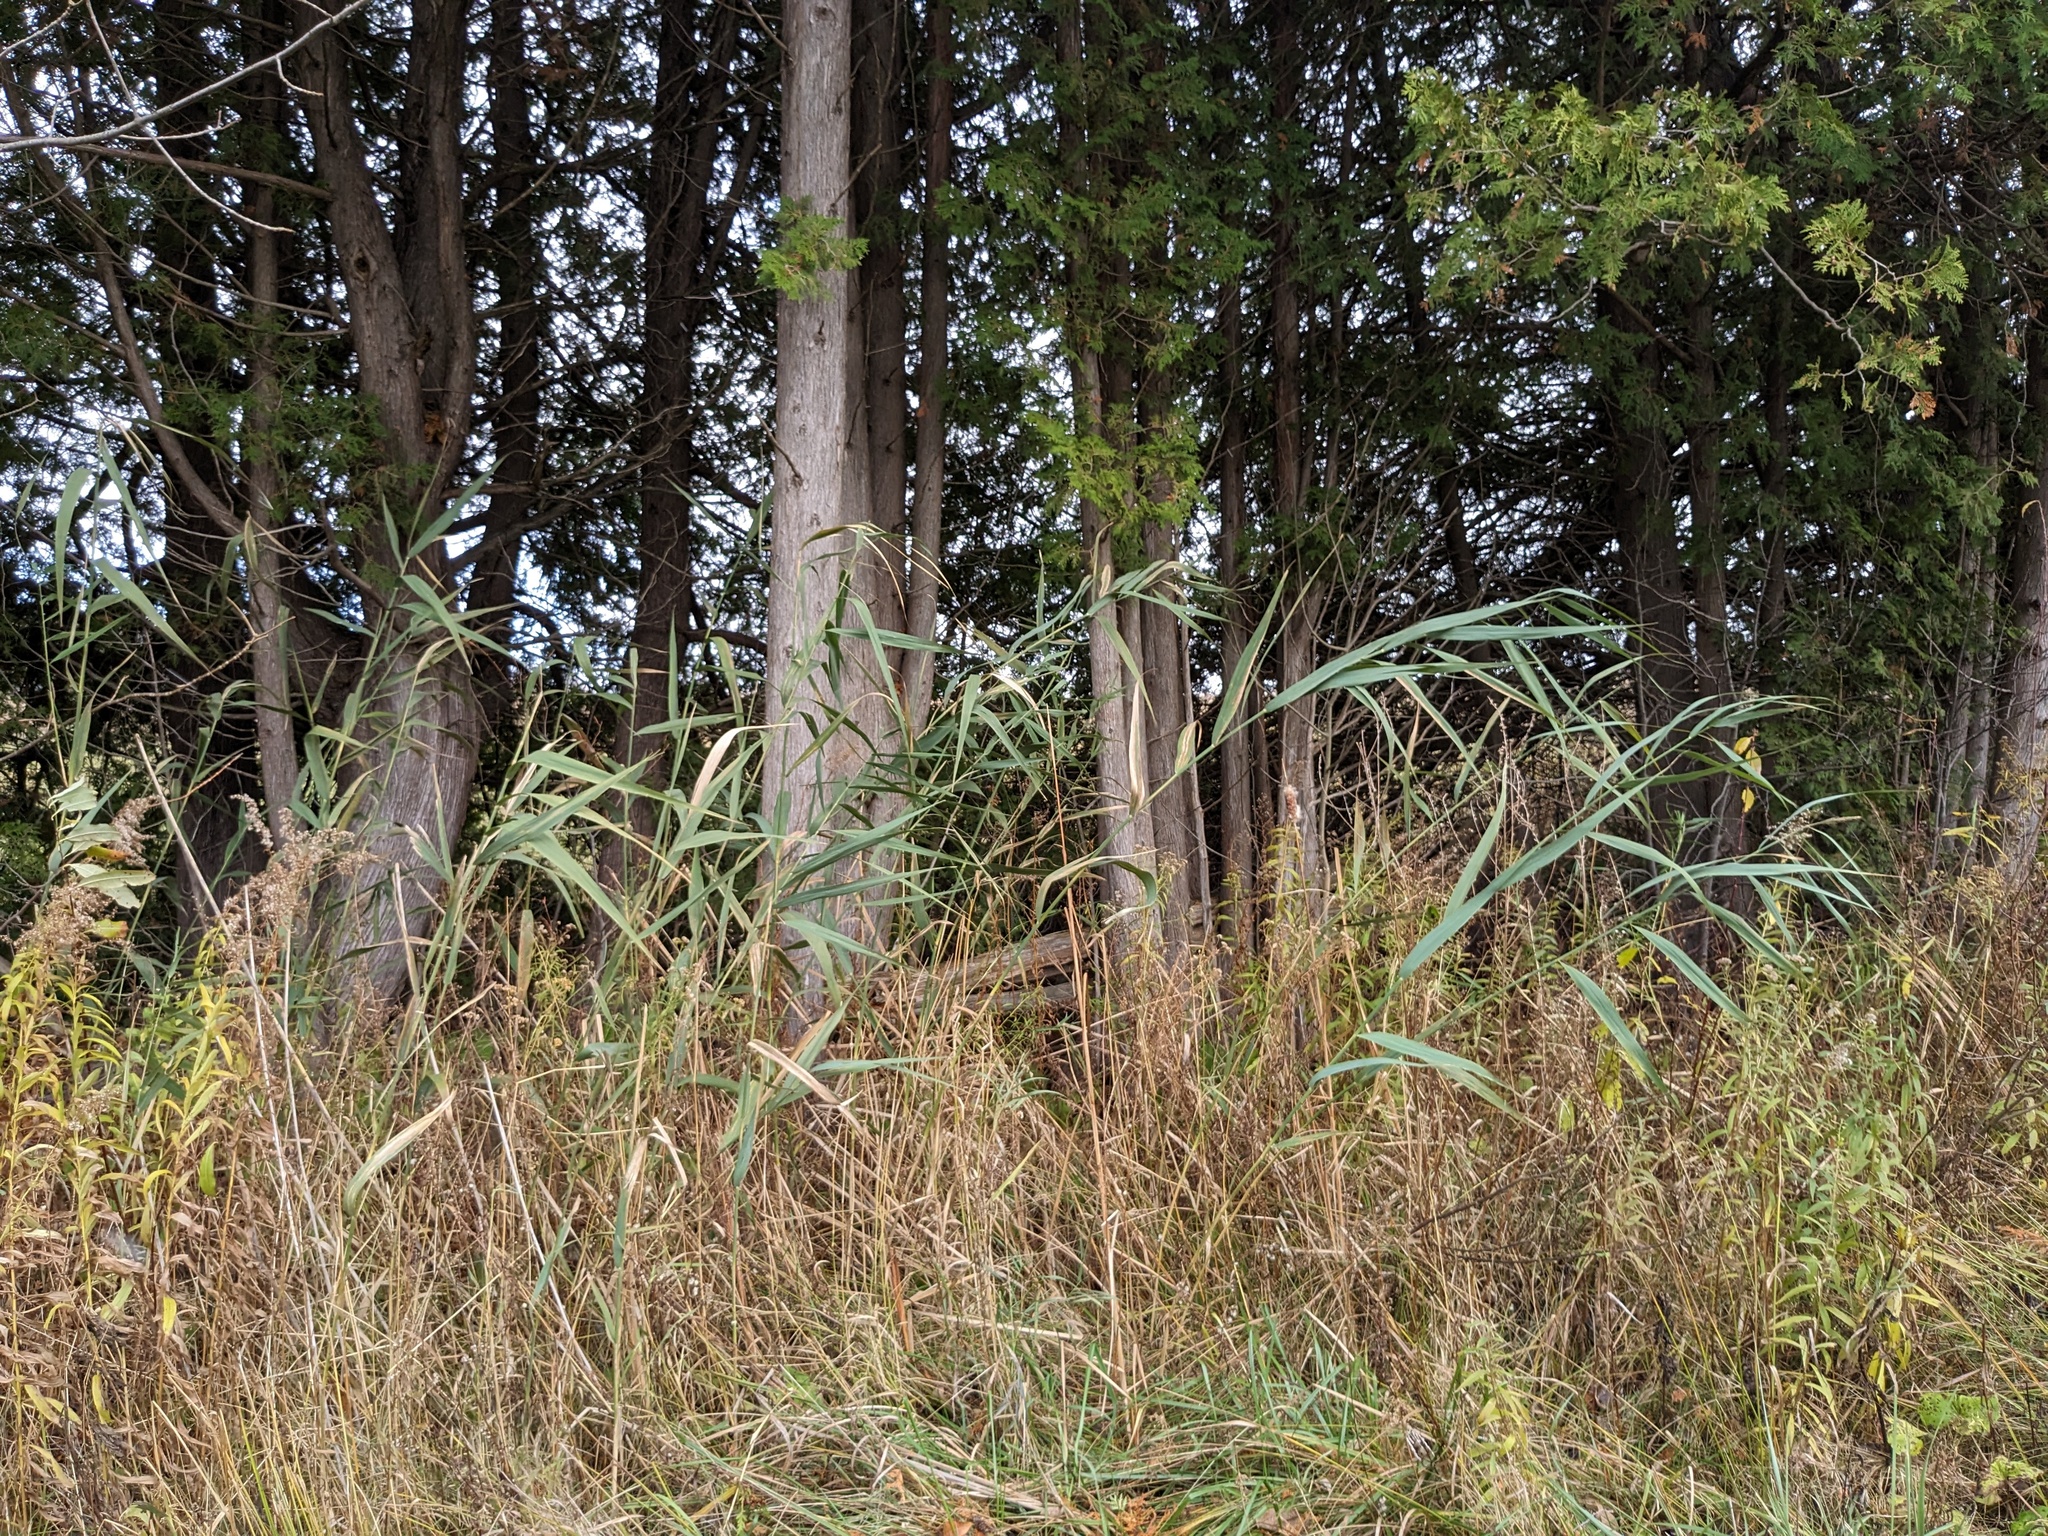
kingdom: Plantae
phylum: Tracheophyta
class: Liliopsida
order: Poales
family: Poaceae
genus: Phragmites
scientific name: Phragmites australis
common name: Common reed
